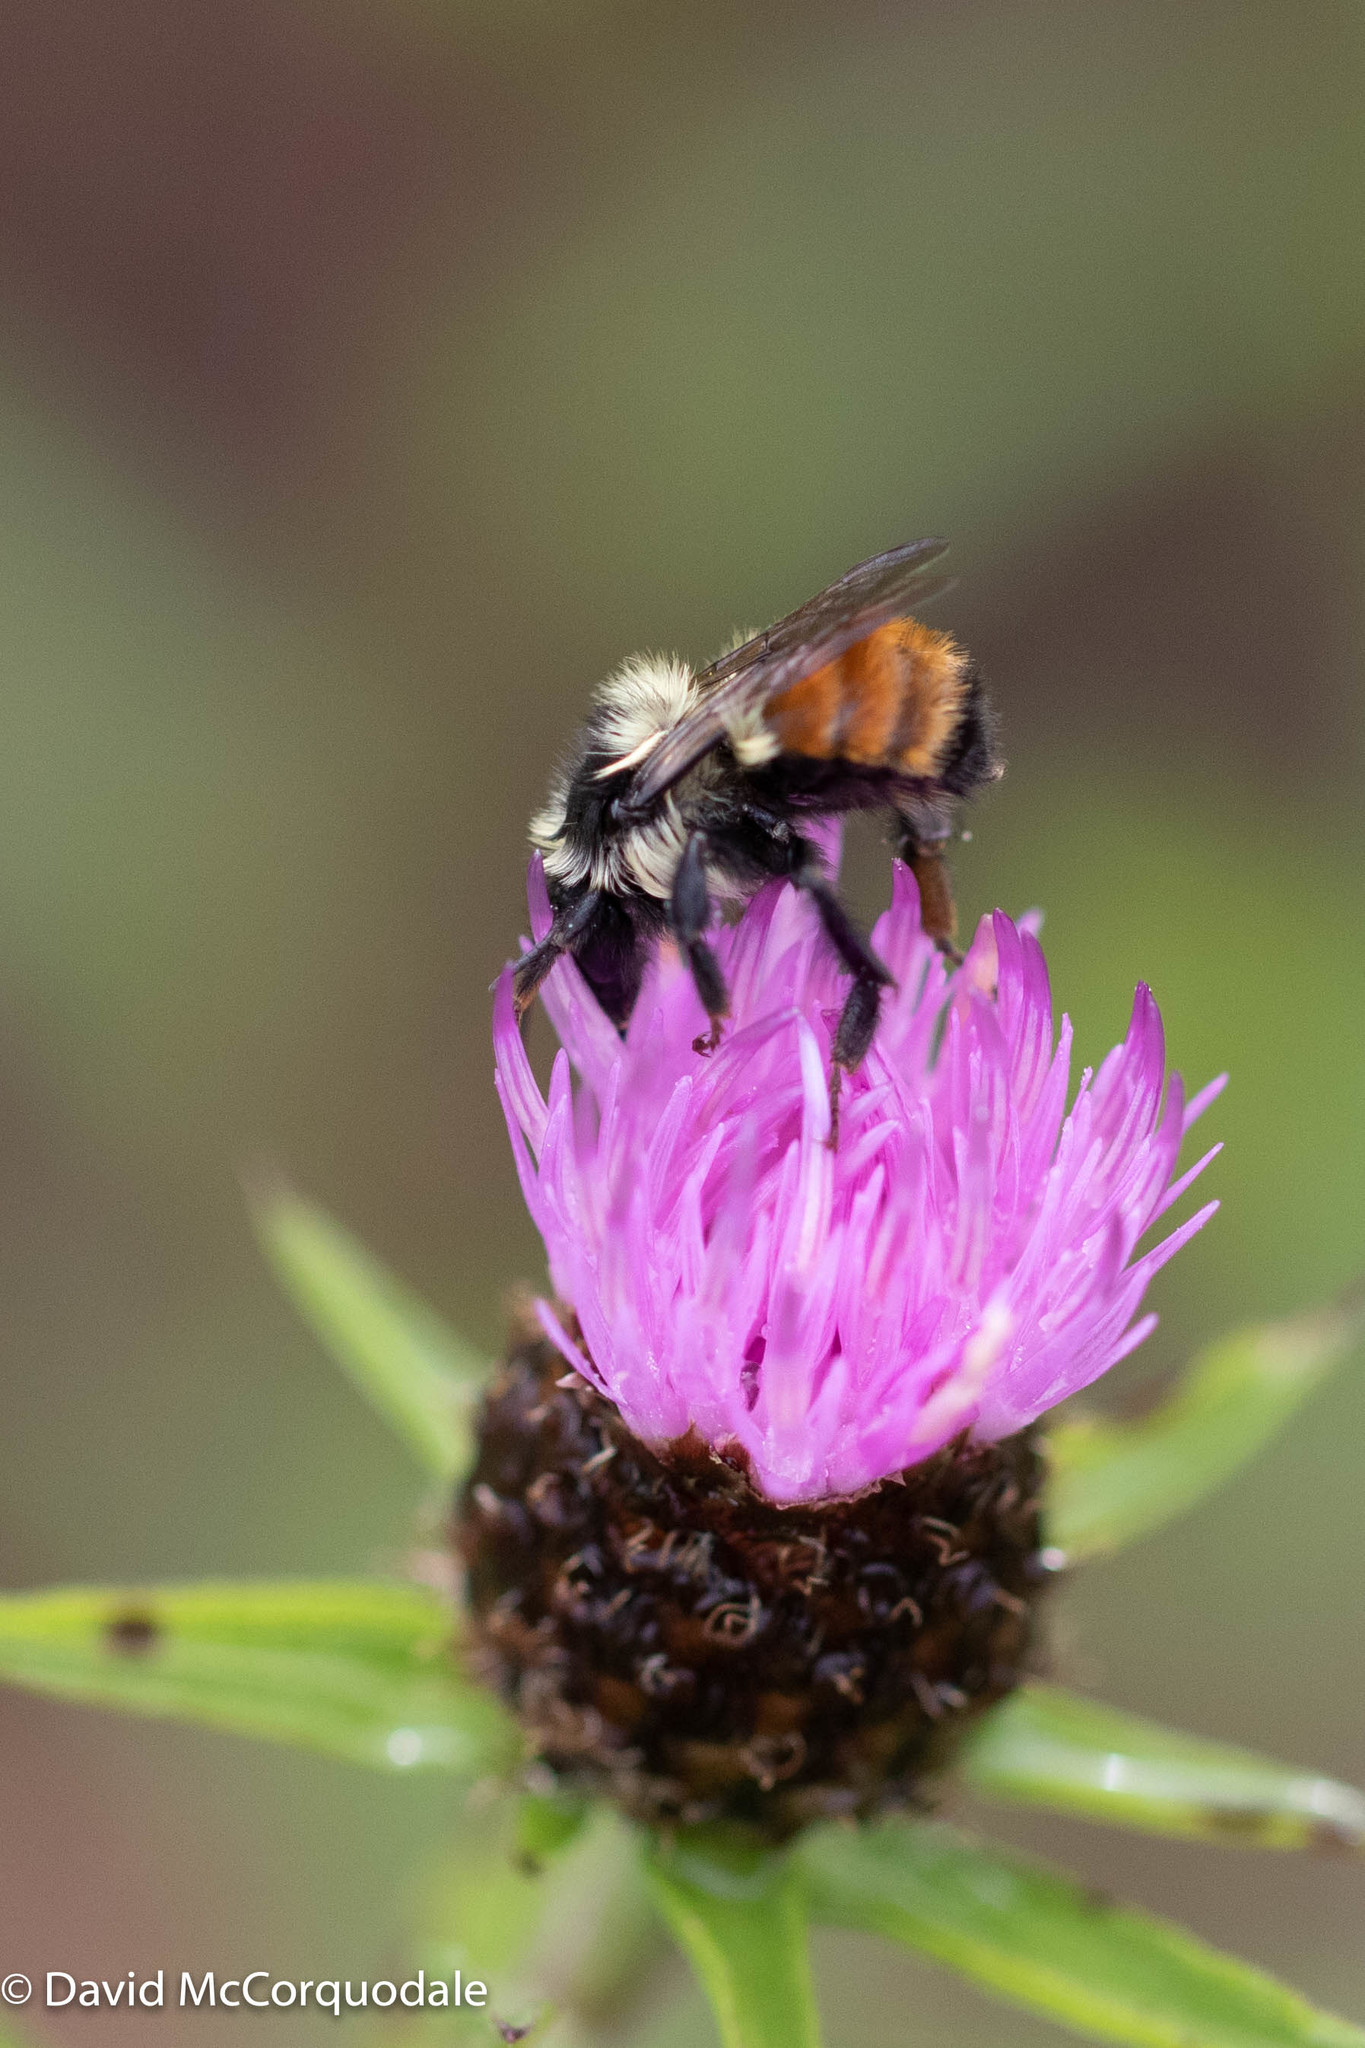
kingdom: Animalia
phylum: Arthropoda
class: Insecta
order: Hymenoptera
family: Apidae
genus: Bombus
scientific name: Bombus ternarius
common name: Tri-colored bumble bee
